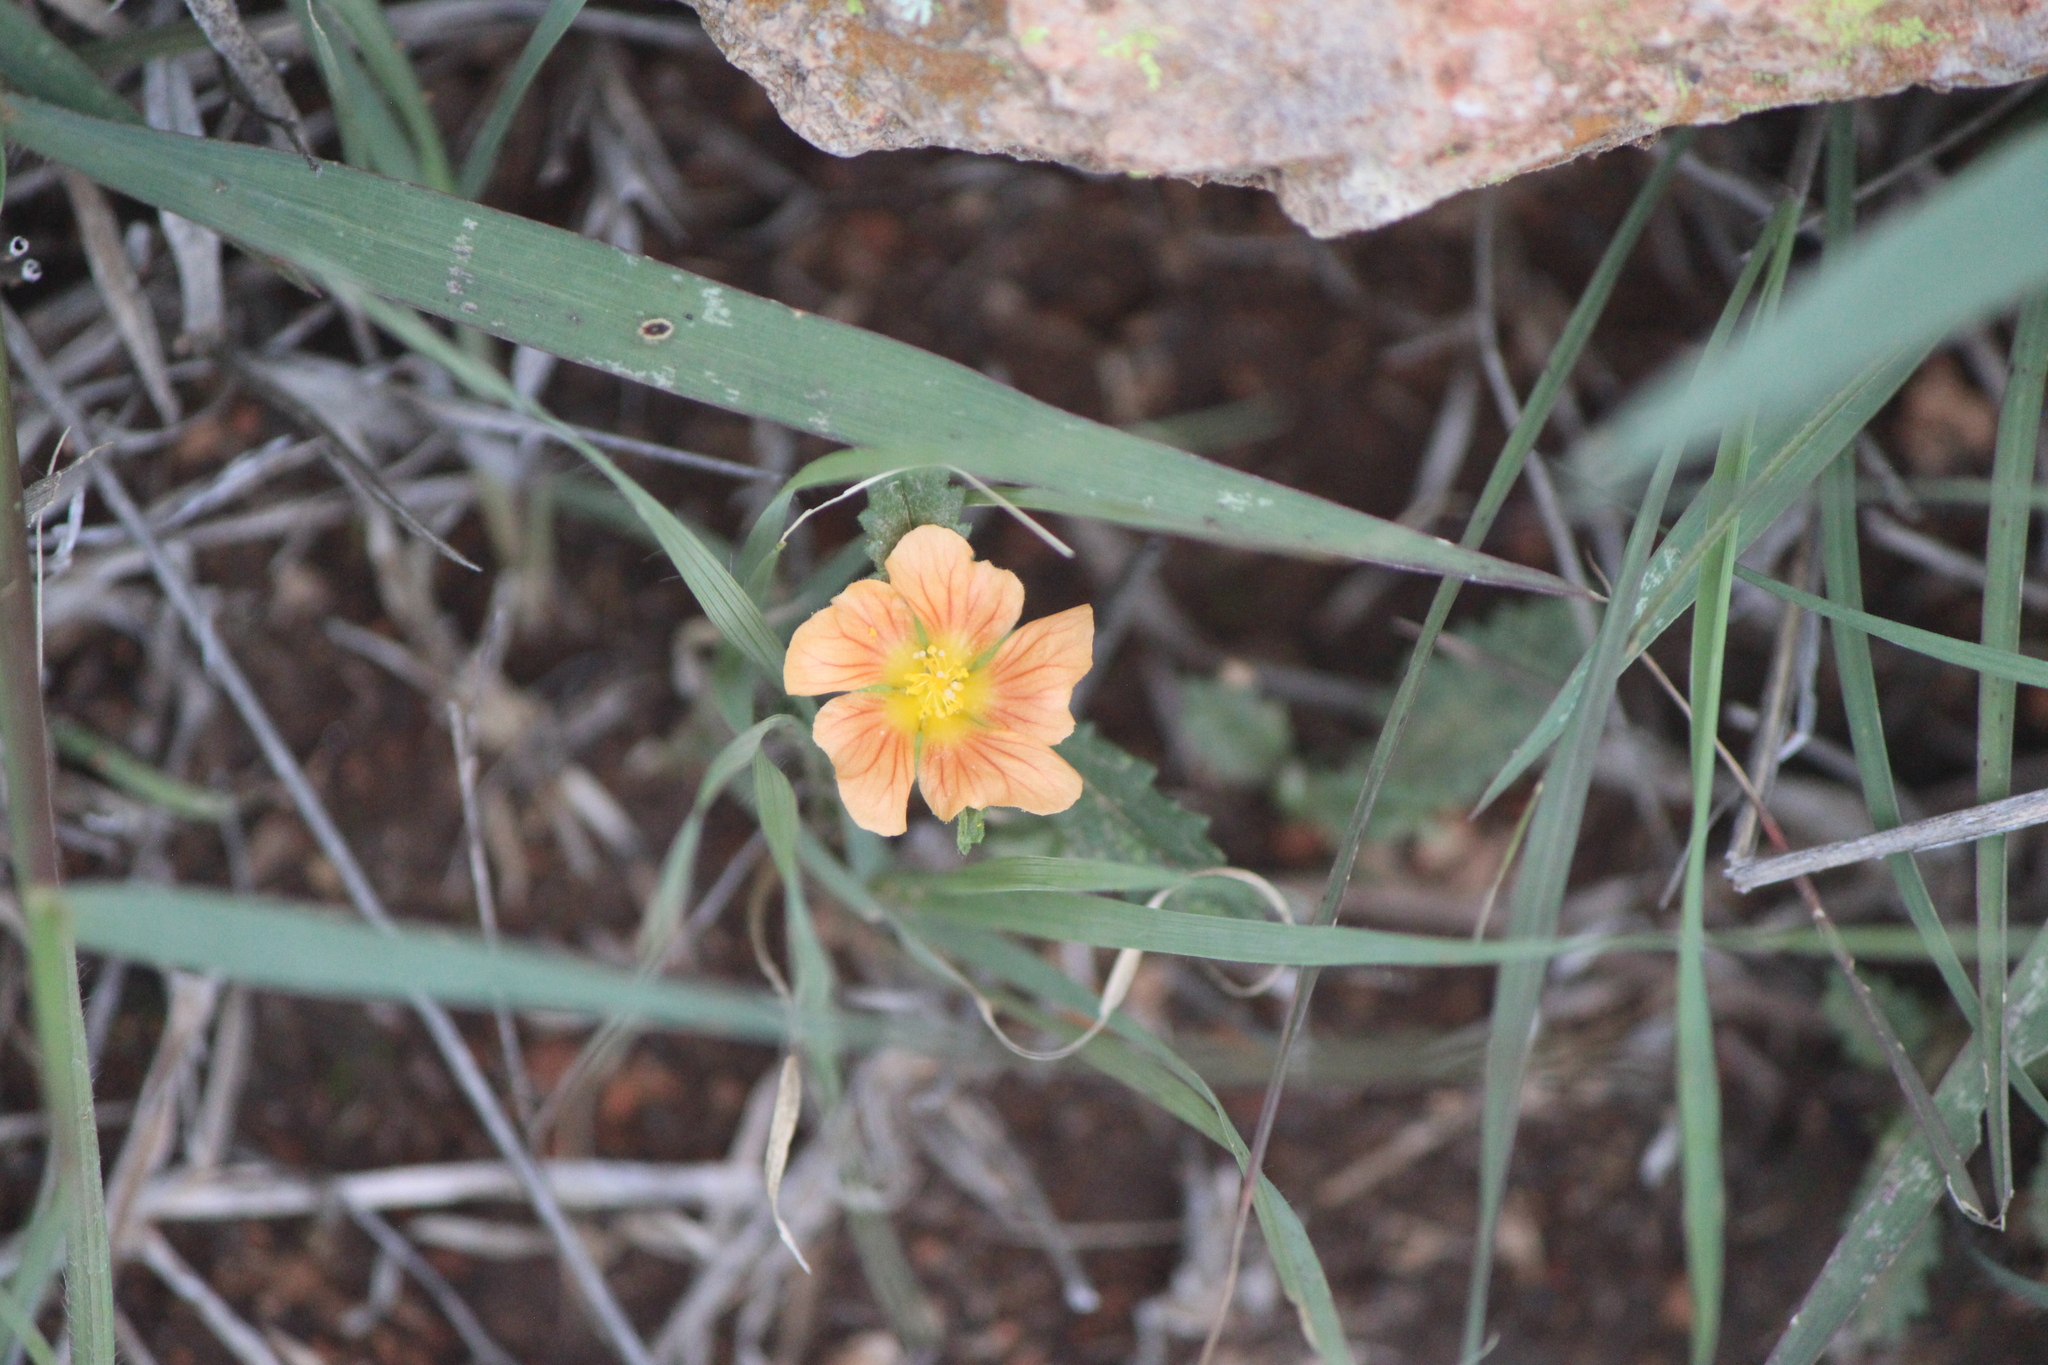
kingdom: Plantae
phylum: Tracheophyta
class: Magnoliopsida
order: Malvales
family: Malvaceae
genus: Sida
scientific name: Sida abutilifolia
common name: Spreading fanpetals
